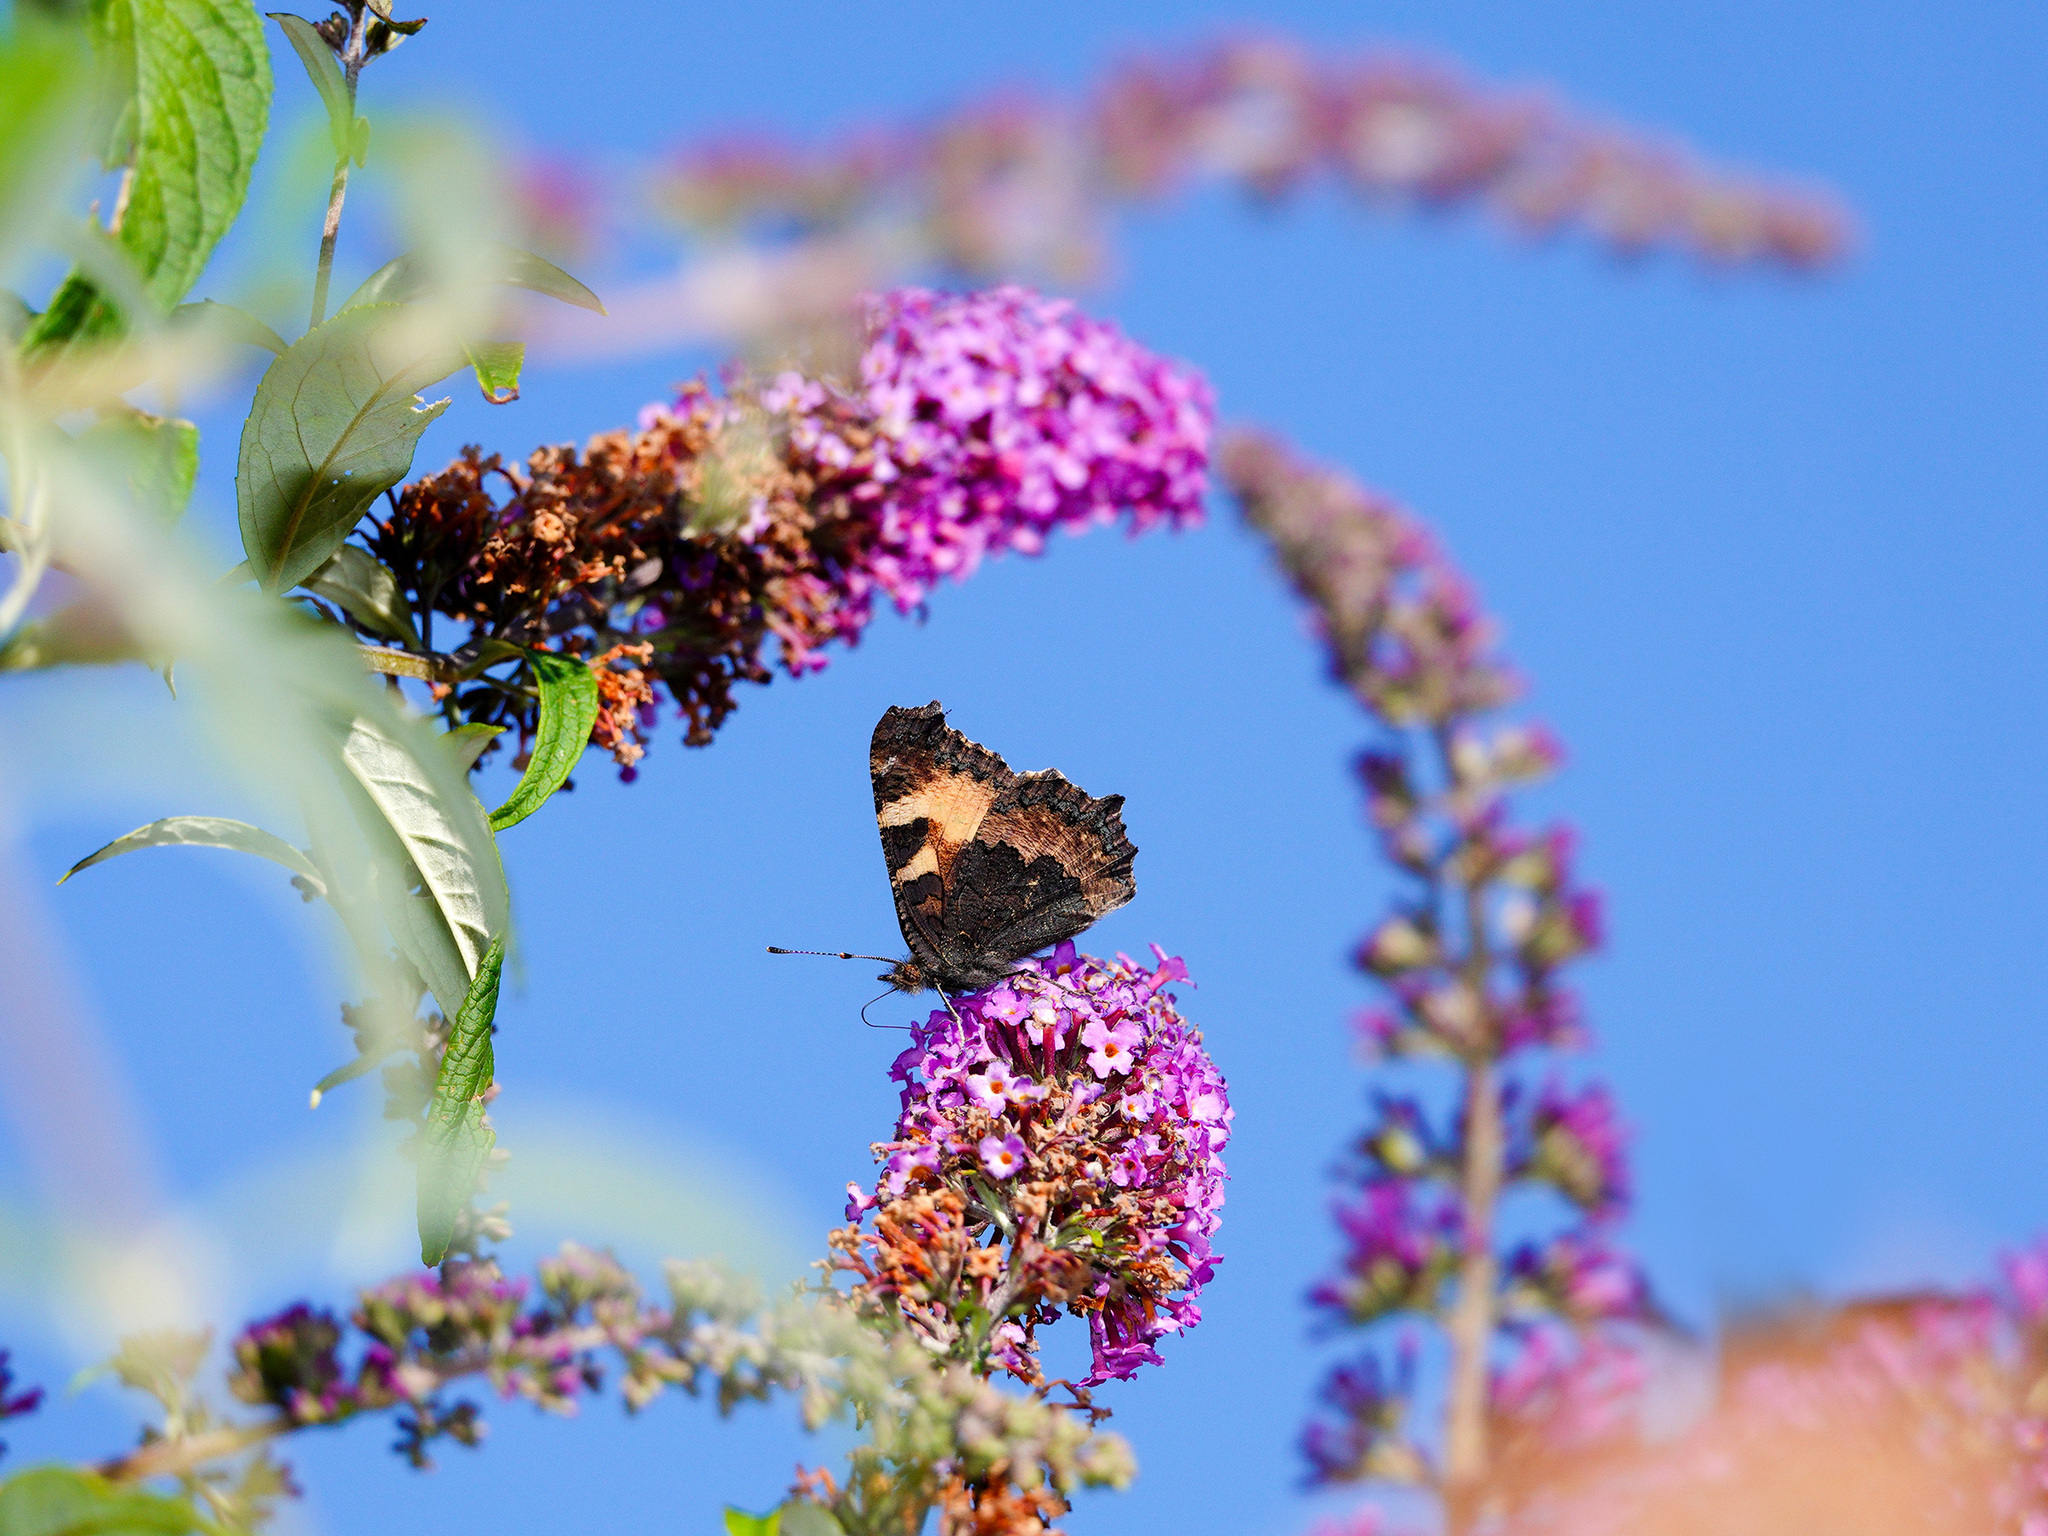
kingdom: Animalia
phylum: Arthropoda
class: Insecta
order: Lepidoptera
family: Nymphalidae
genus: Aglais
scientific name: Aglais urticae
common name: Small tortoiseshell
